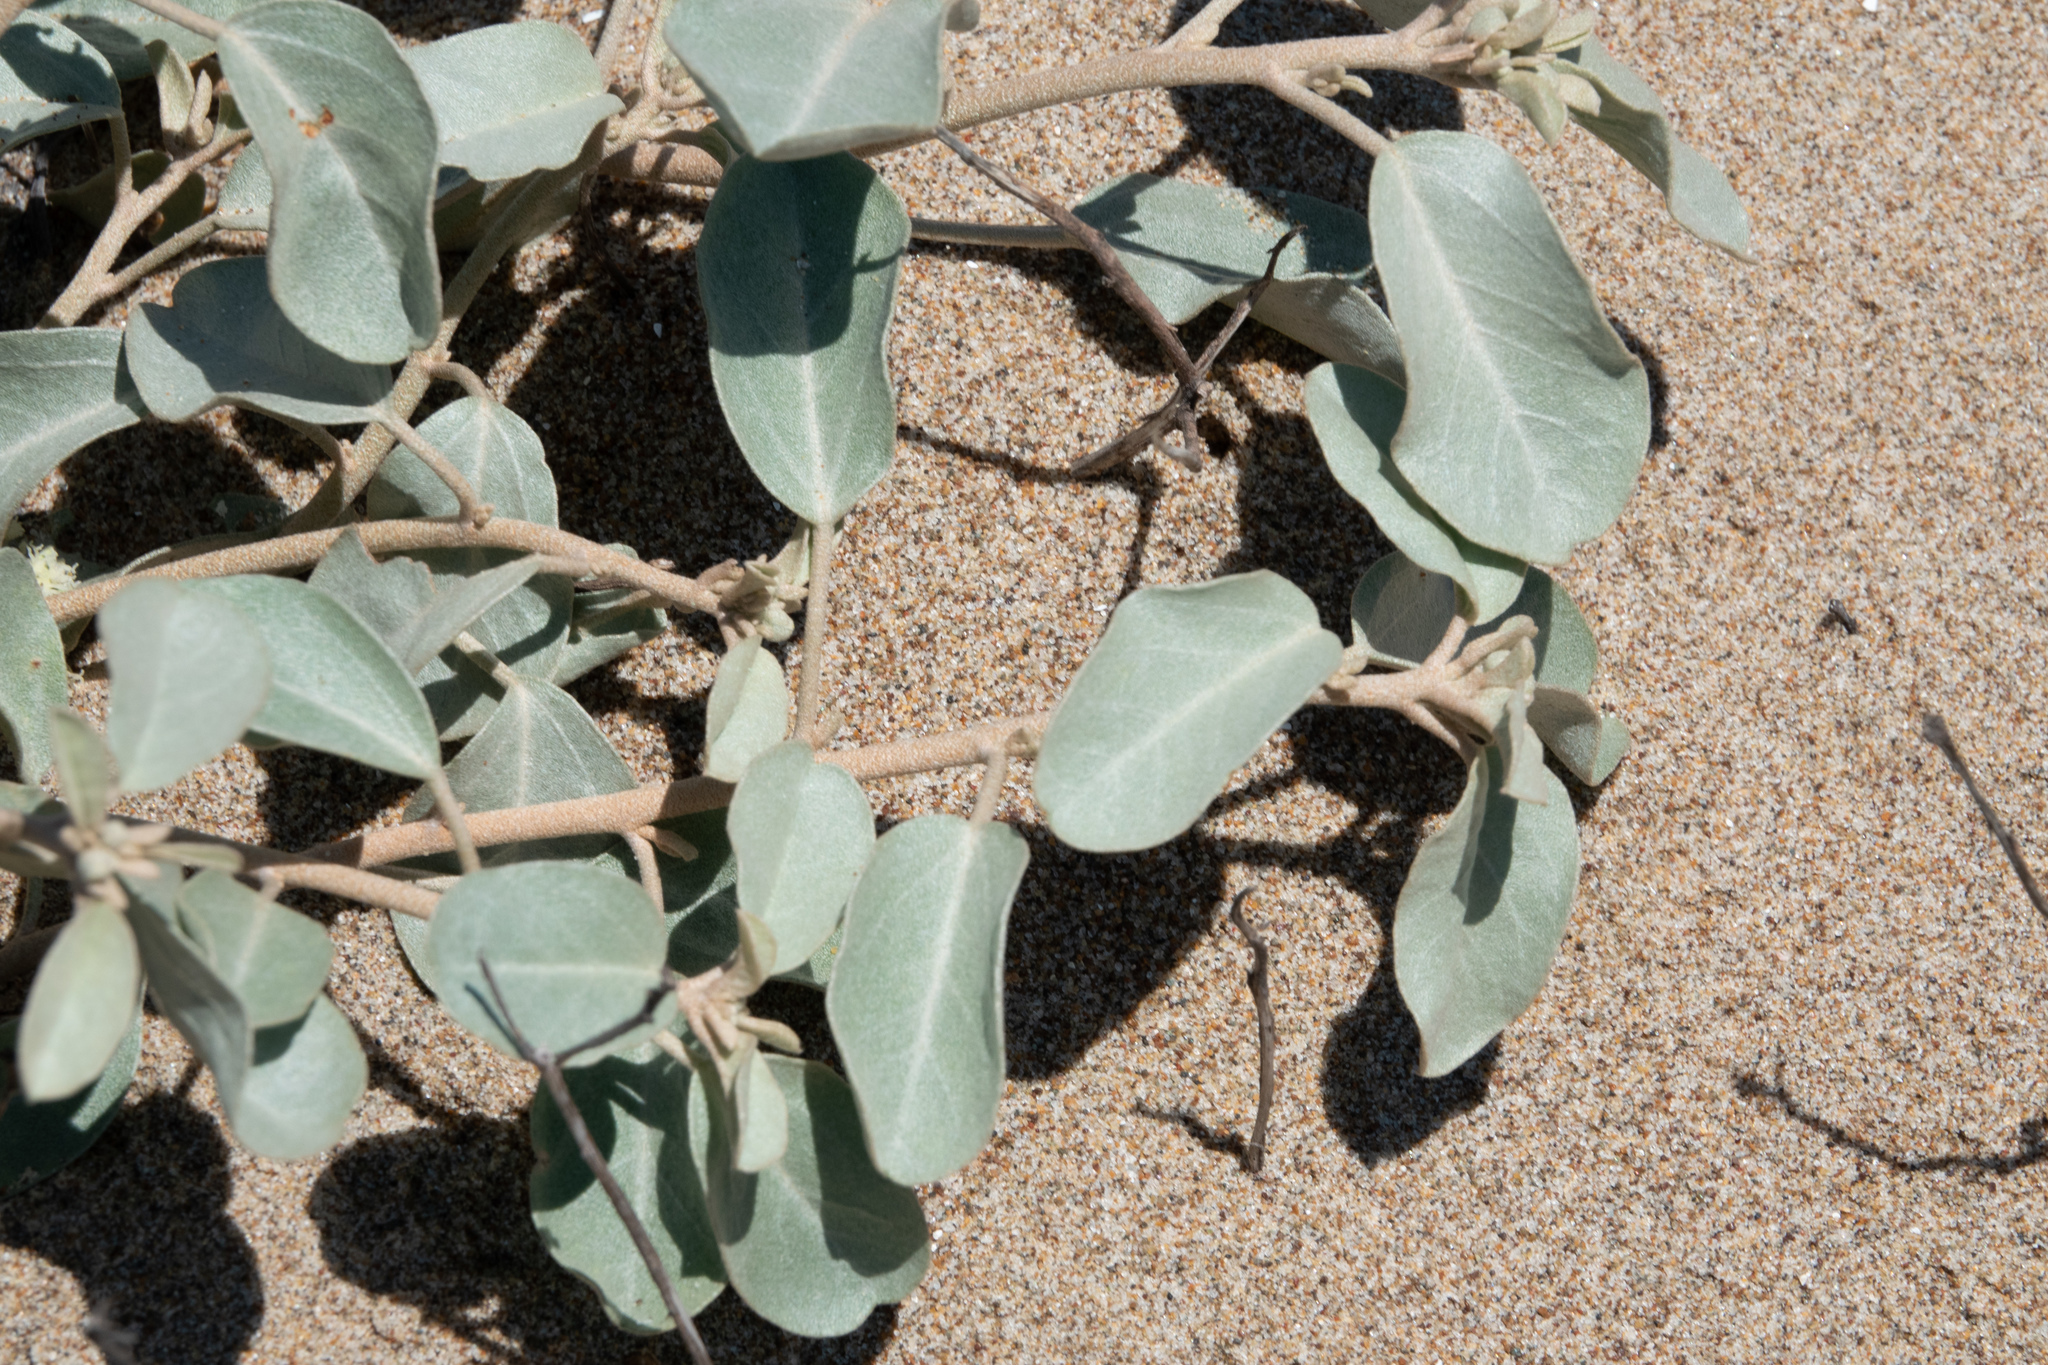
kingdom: Plantae
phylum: Tracheophyta
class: Magnoliopsida
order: Malpighiales
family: Euphorbiaceae
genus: Croton
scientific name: Croton californicus
